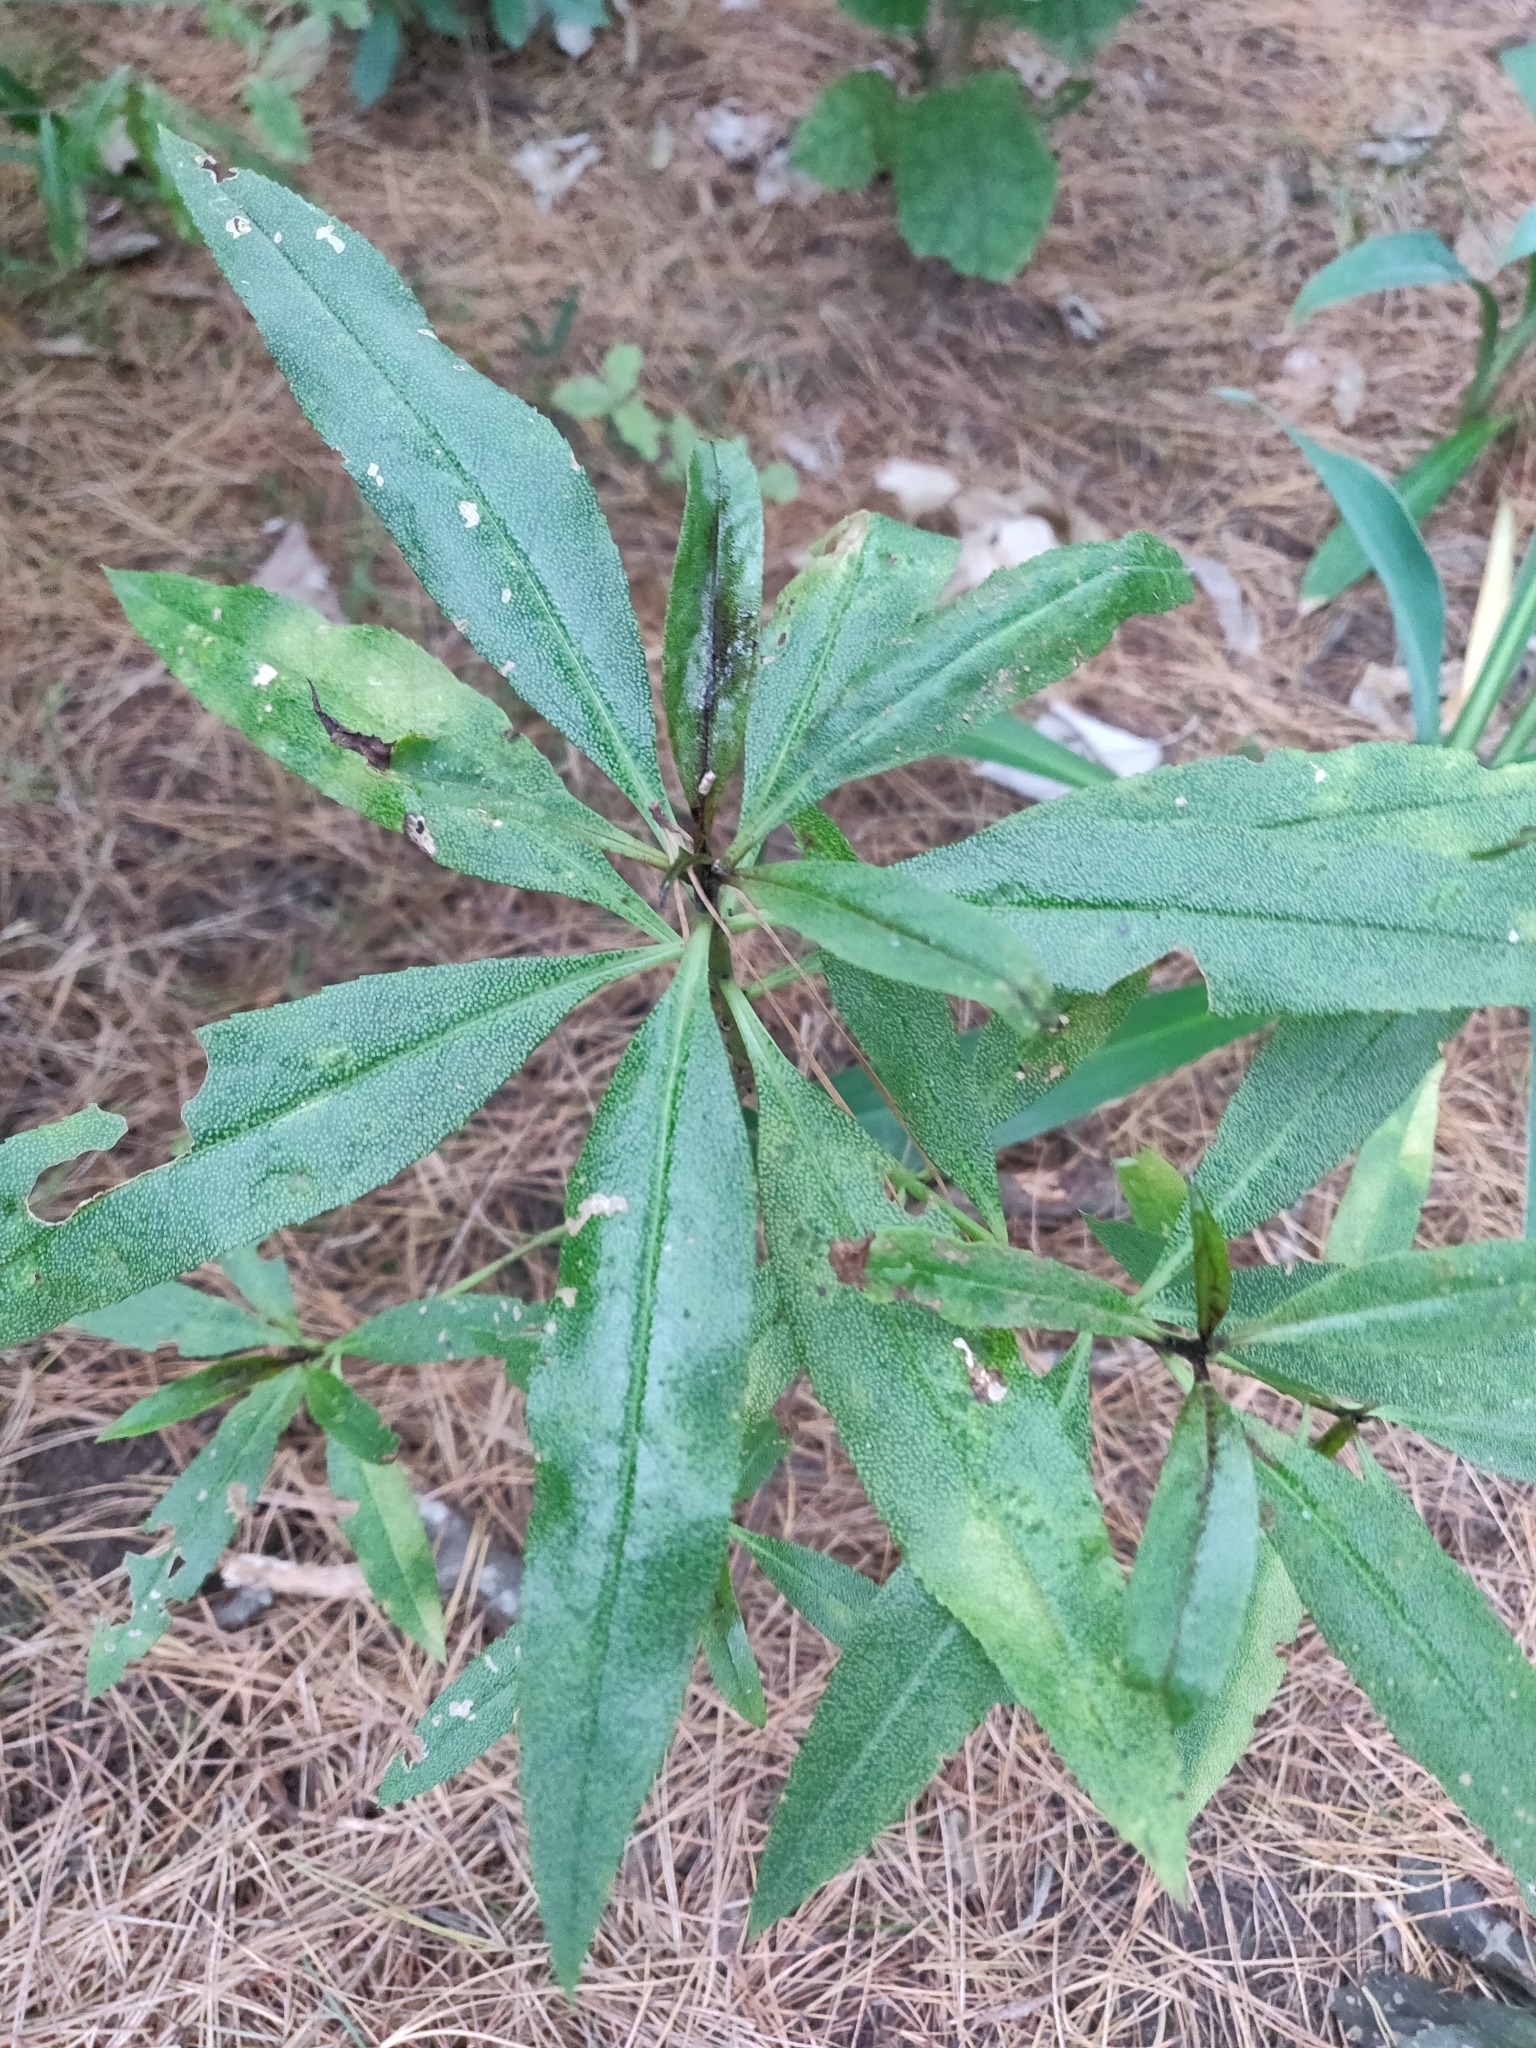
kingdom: Plantae
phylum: Tracheophyta
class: Magnoliopsida
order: Lamiales
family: Scrophulariaceae
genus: Myoporum
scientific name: Myoporum laetum
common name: Ngaio tree
